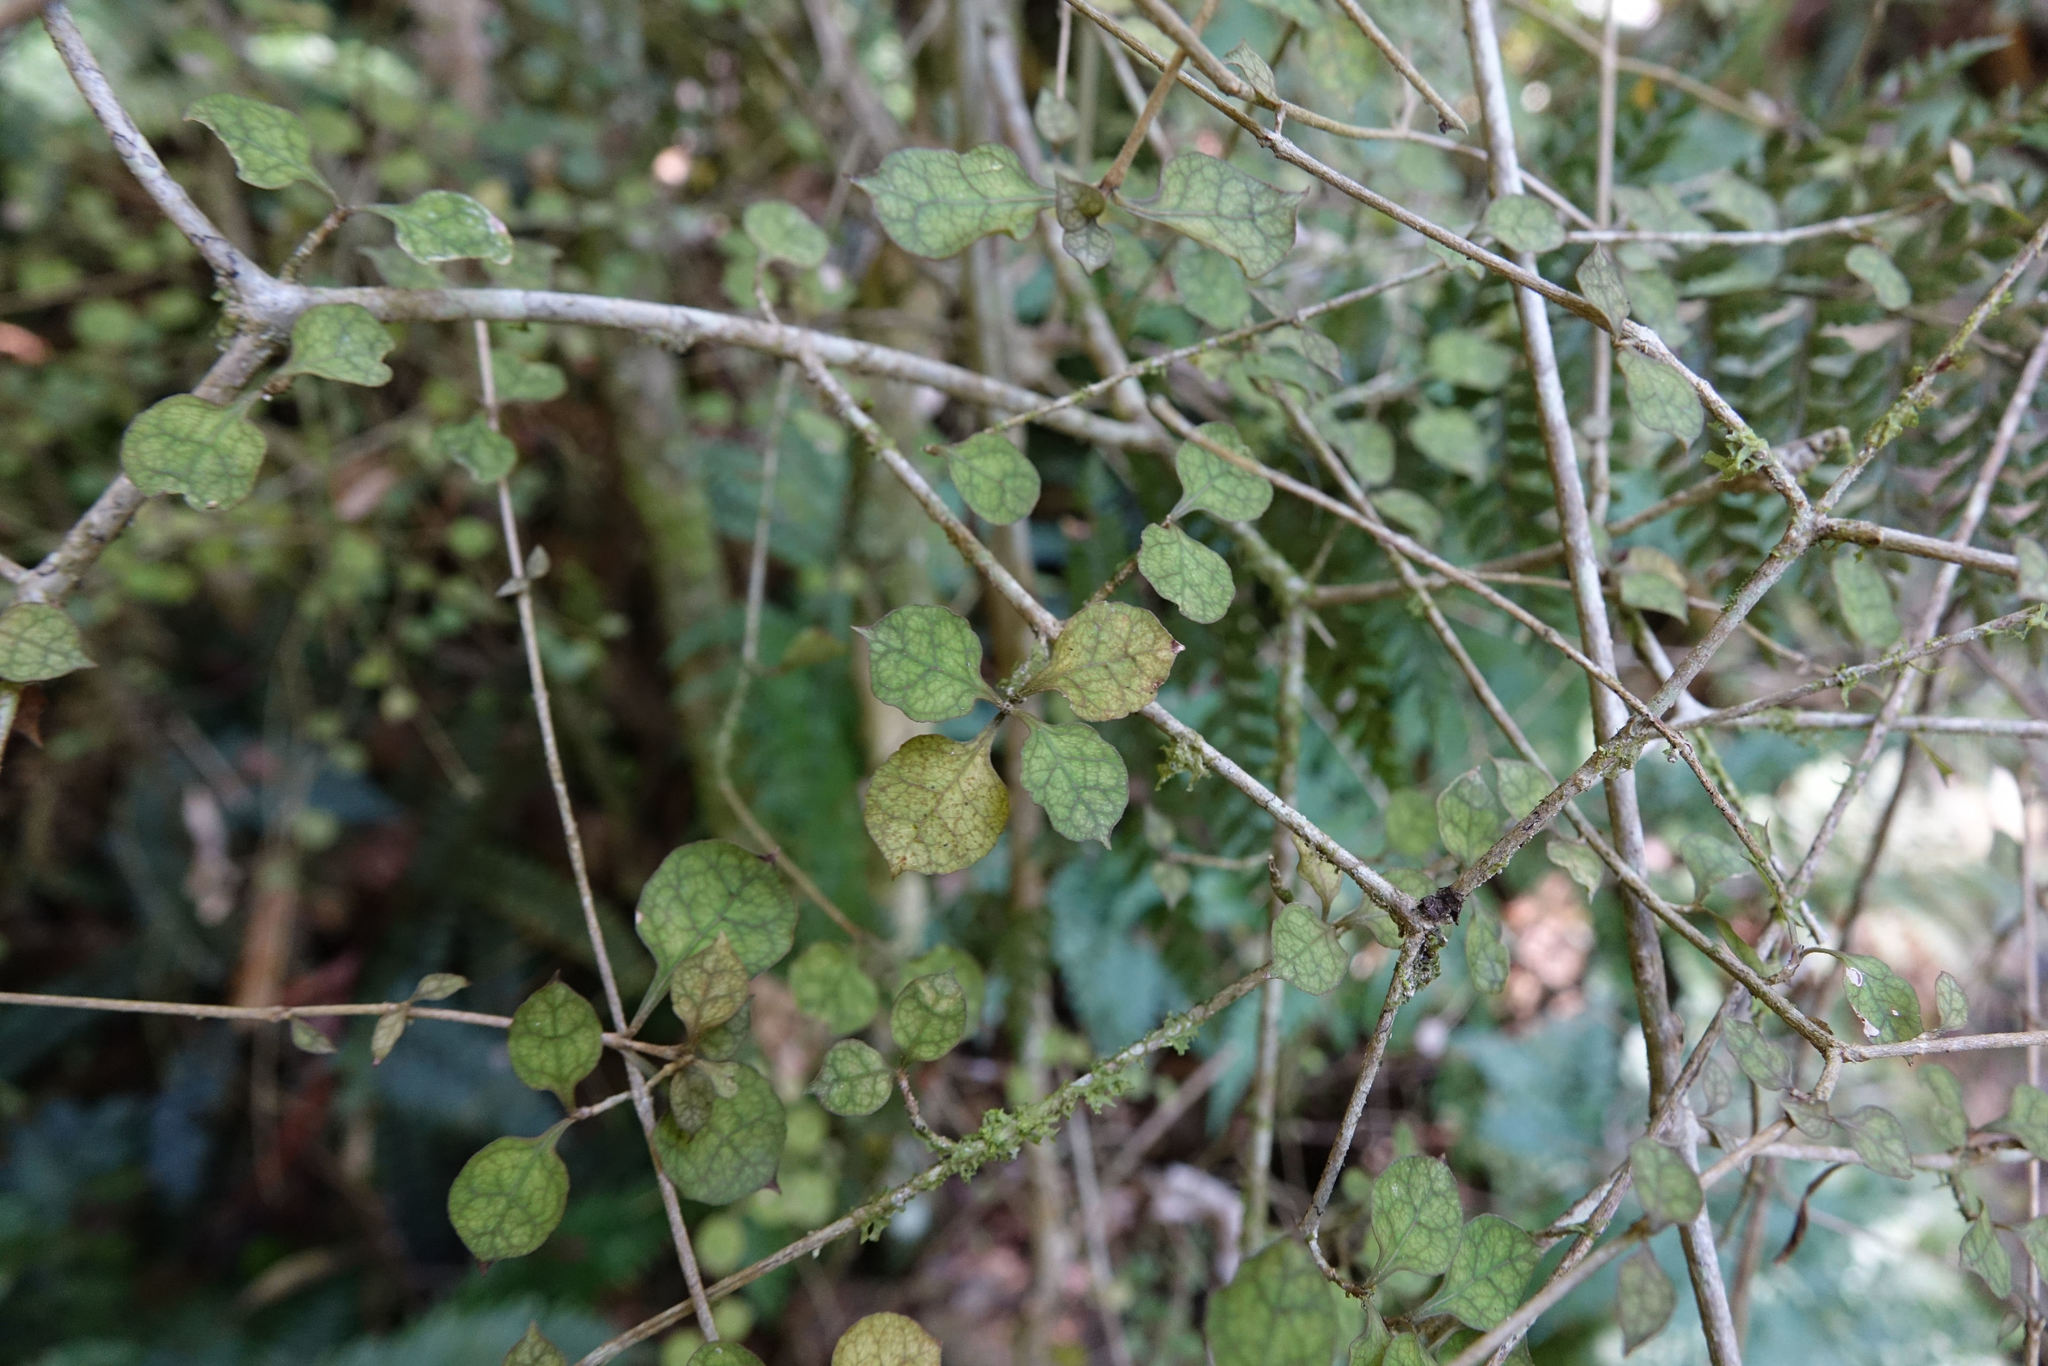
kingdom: Plantae
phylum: Tracheophyta
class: Magnoliopsida
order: Gentianales
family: Rubiaceae
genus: Coprosma
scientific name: Coprosma areolata
